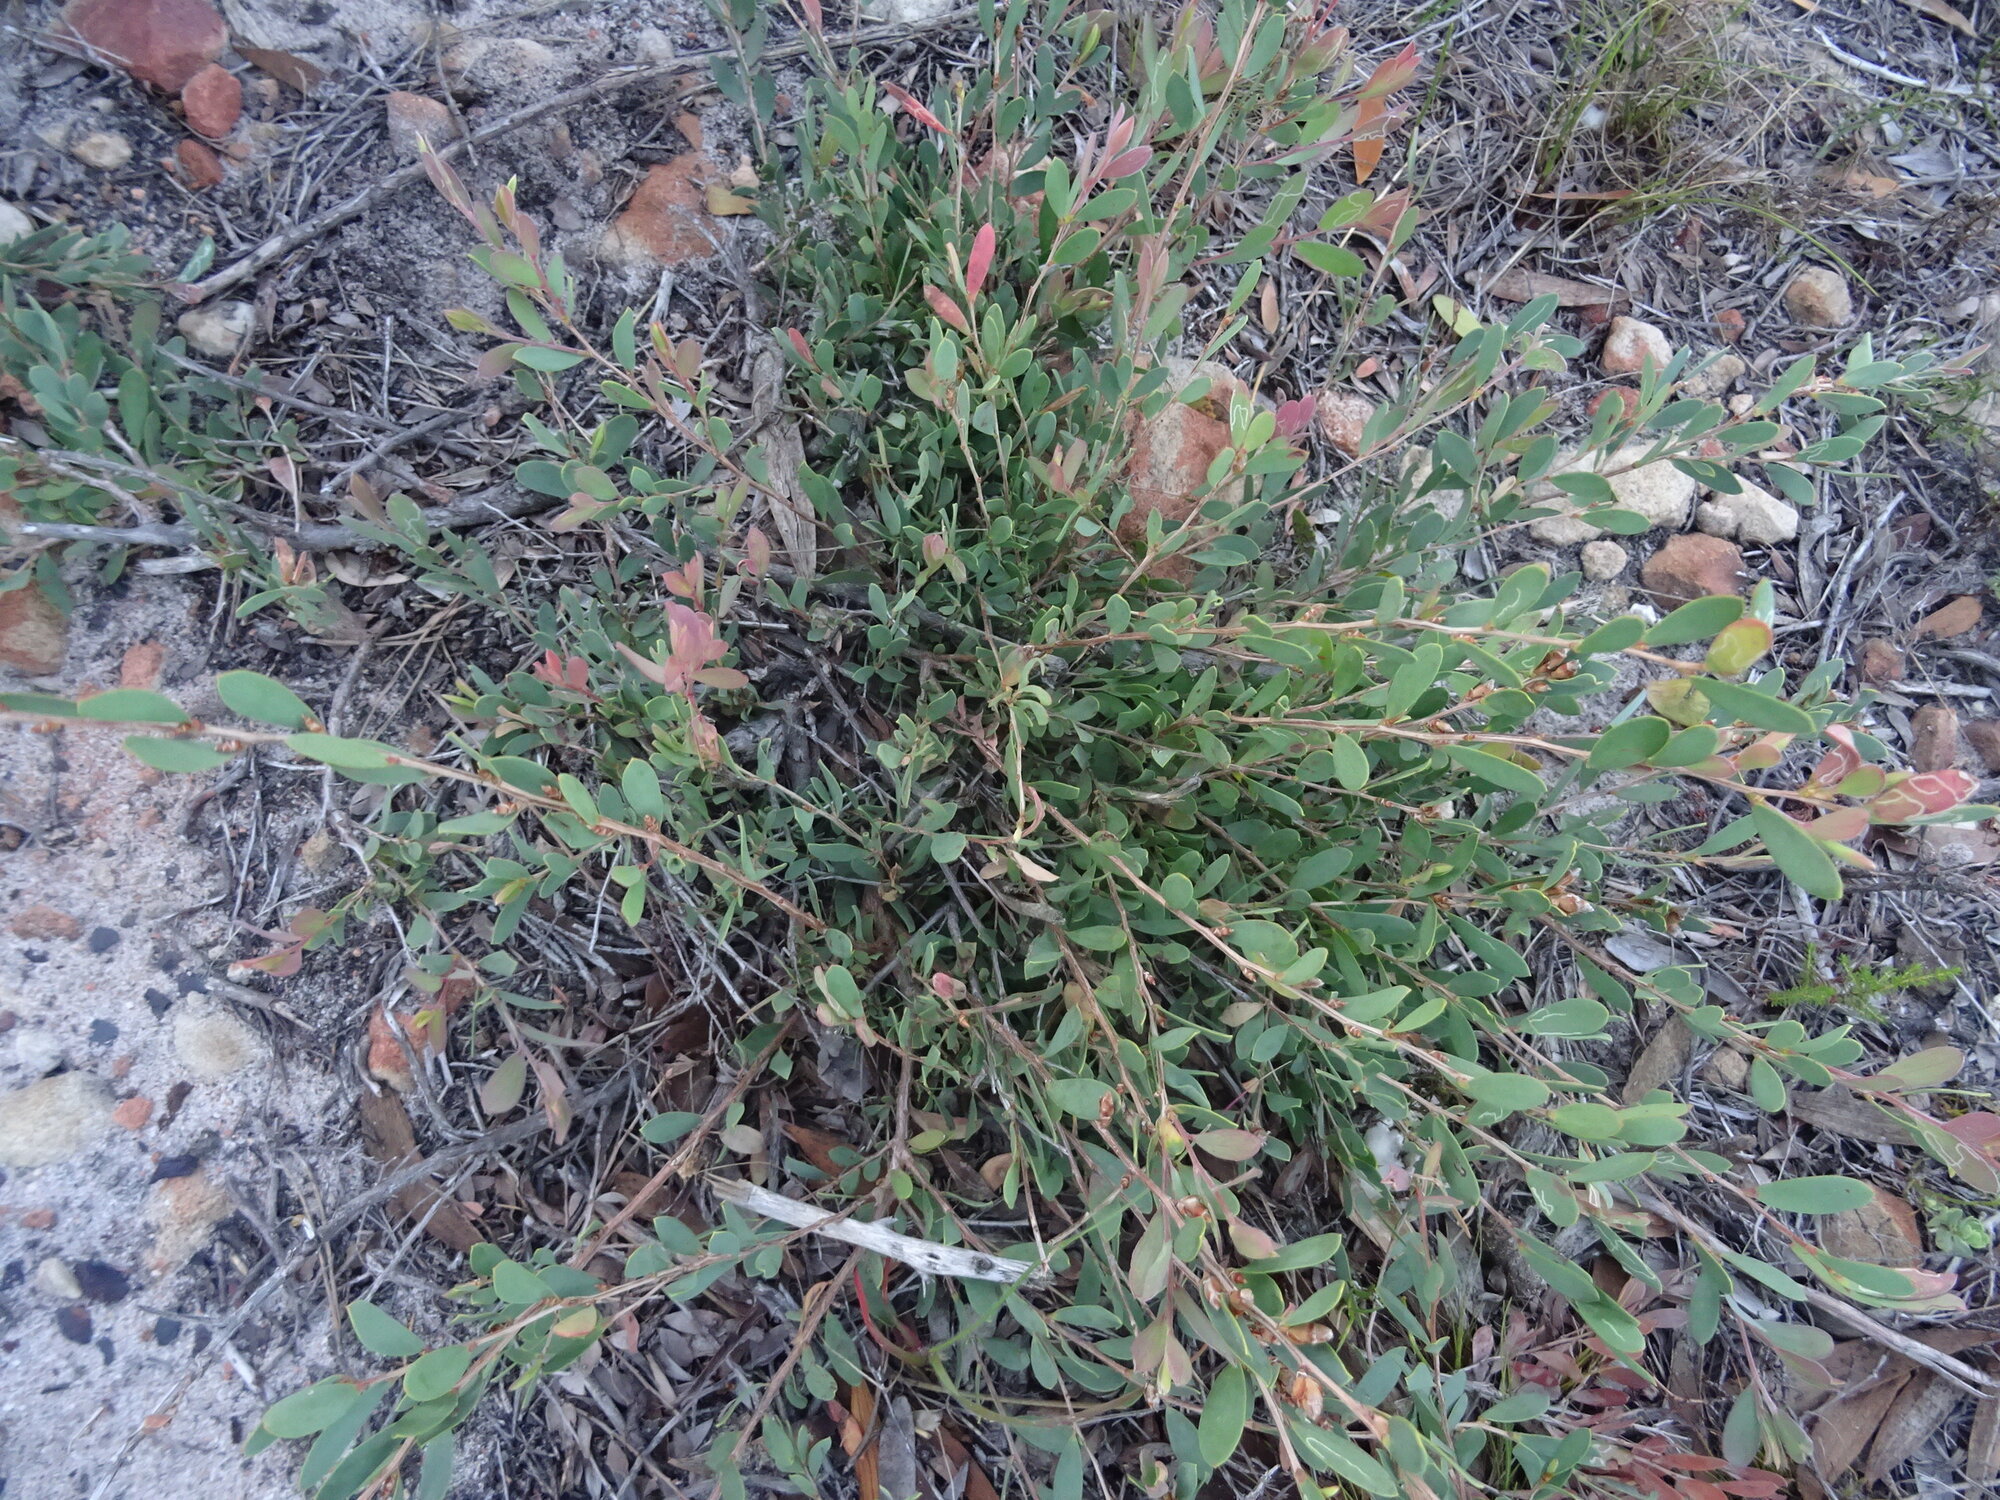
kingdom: Plantae
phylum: Tracheophyta
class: Magnoliopsida
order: Myrtales
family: Myrtaceae
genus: Leptospermum
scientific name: Leptospermum laevigatum
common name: Australian teatree
